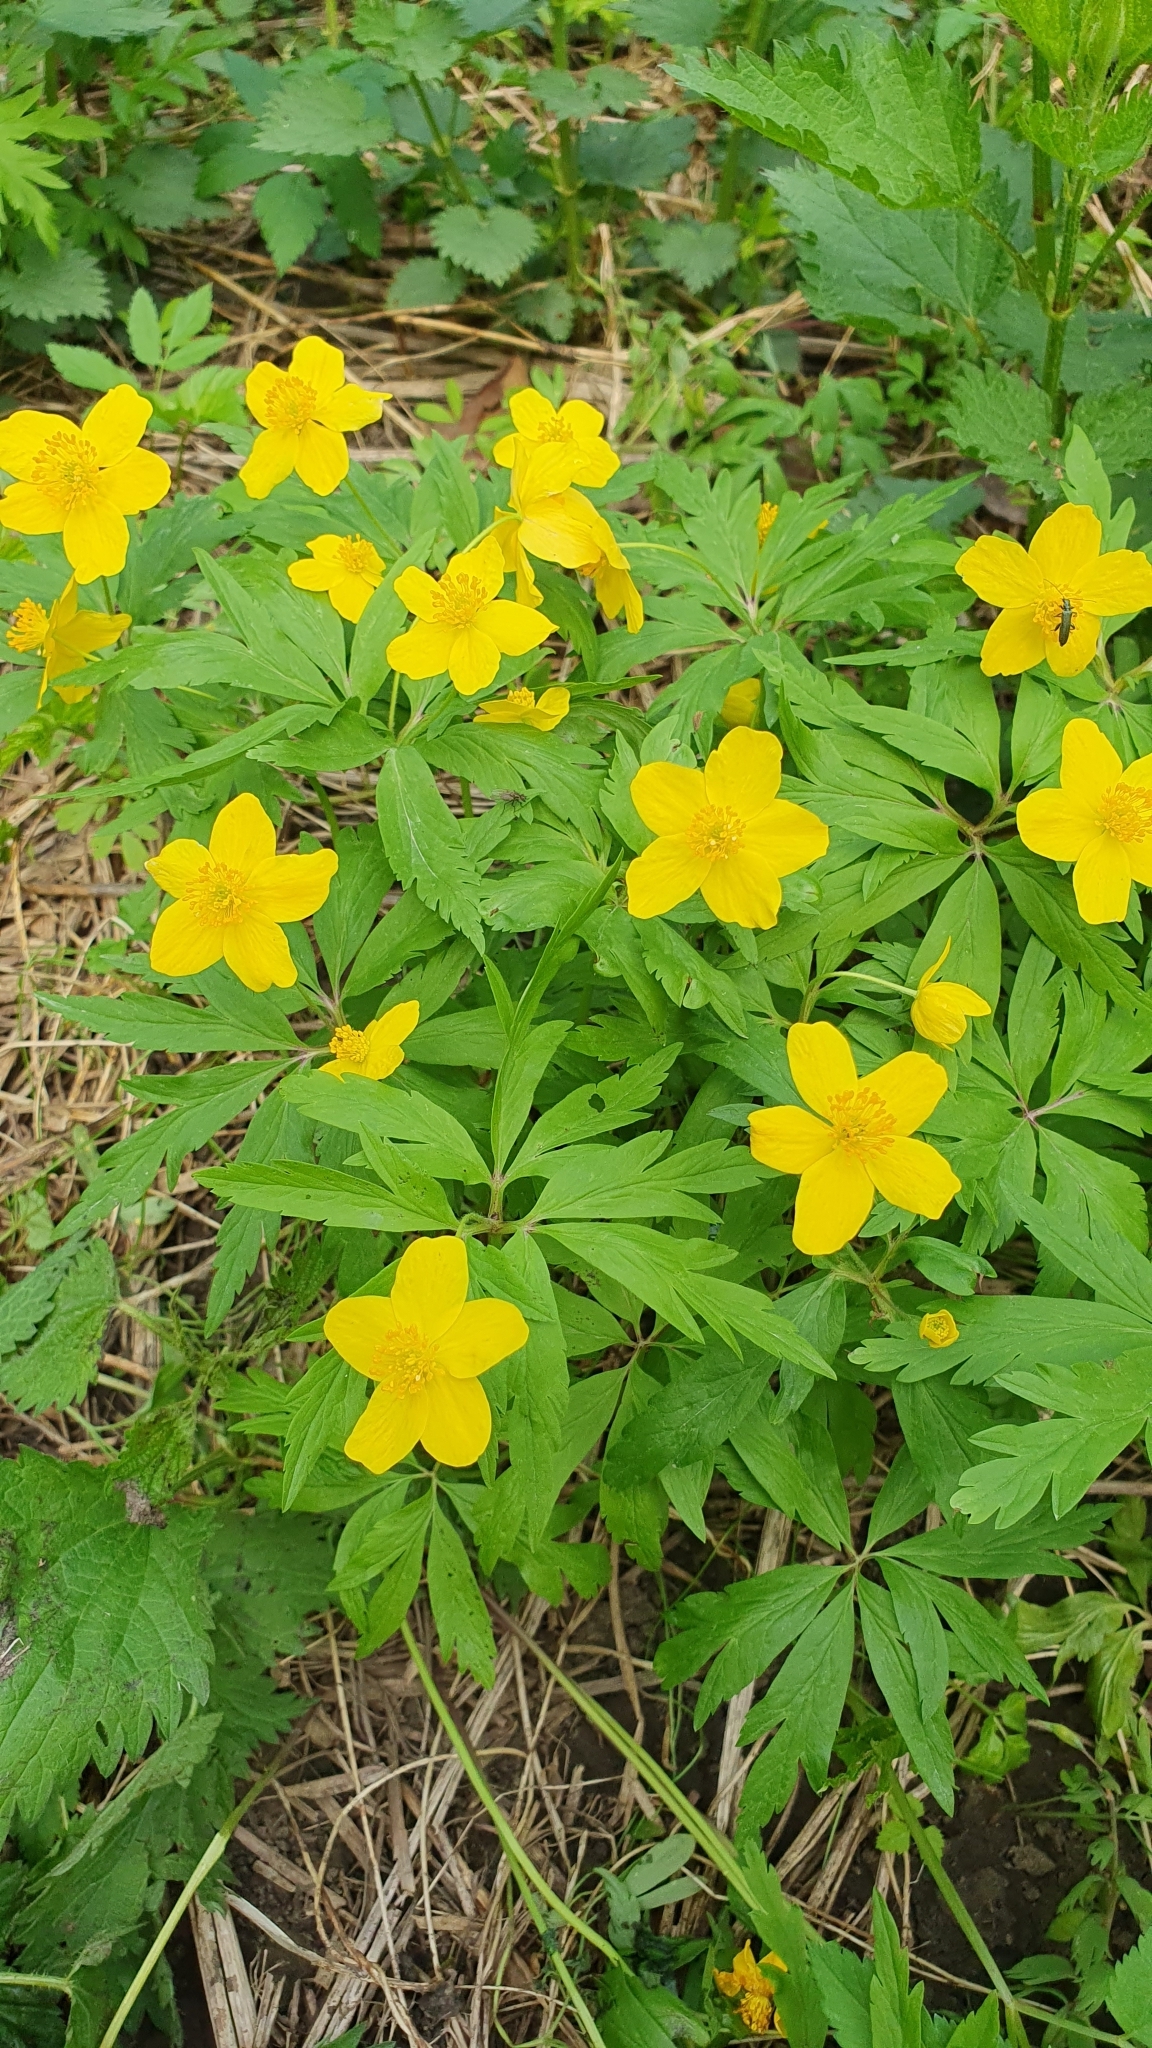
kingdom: Plantae
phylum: Tracheophyta
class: Magnoliopsida
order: Ranunculales
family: Ranunculaceae
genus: Anemone
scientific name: Anemone ranunculoides
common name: Yellow anemone
